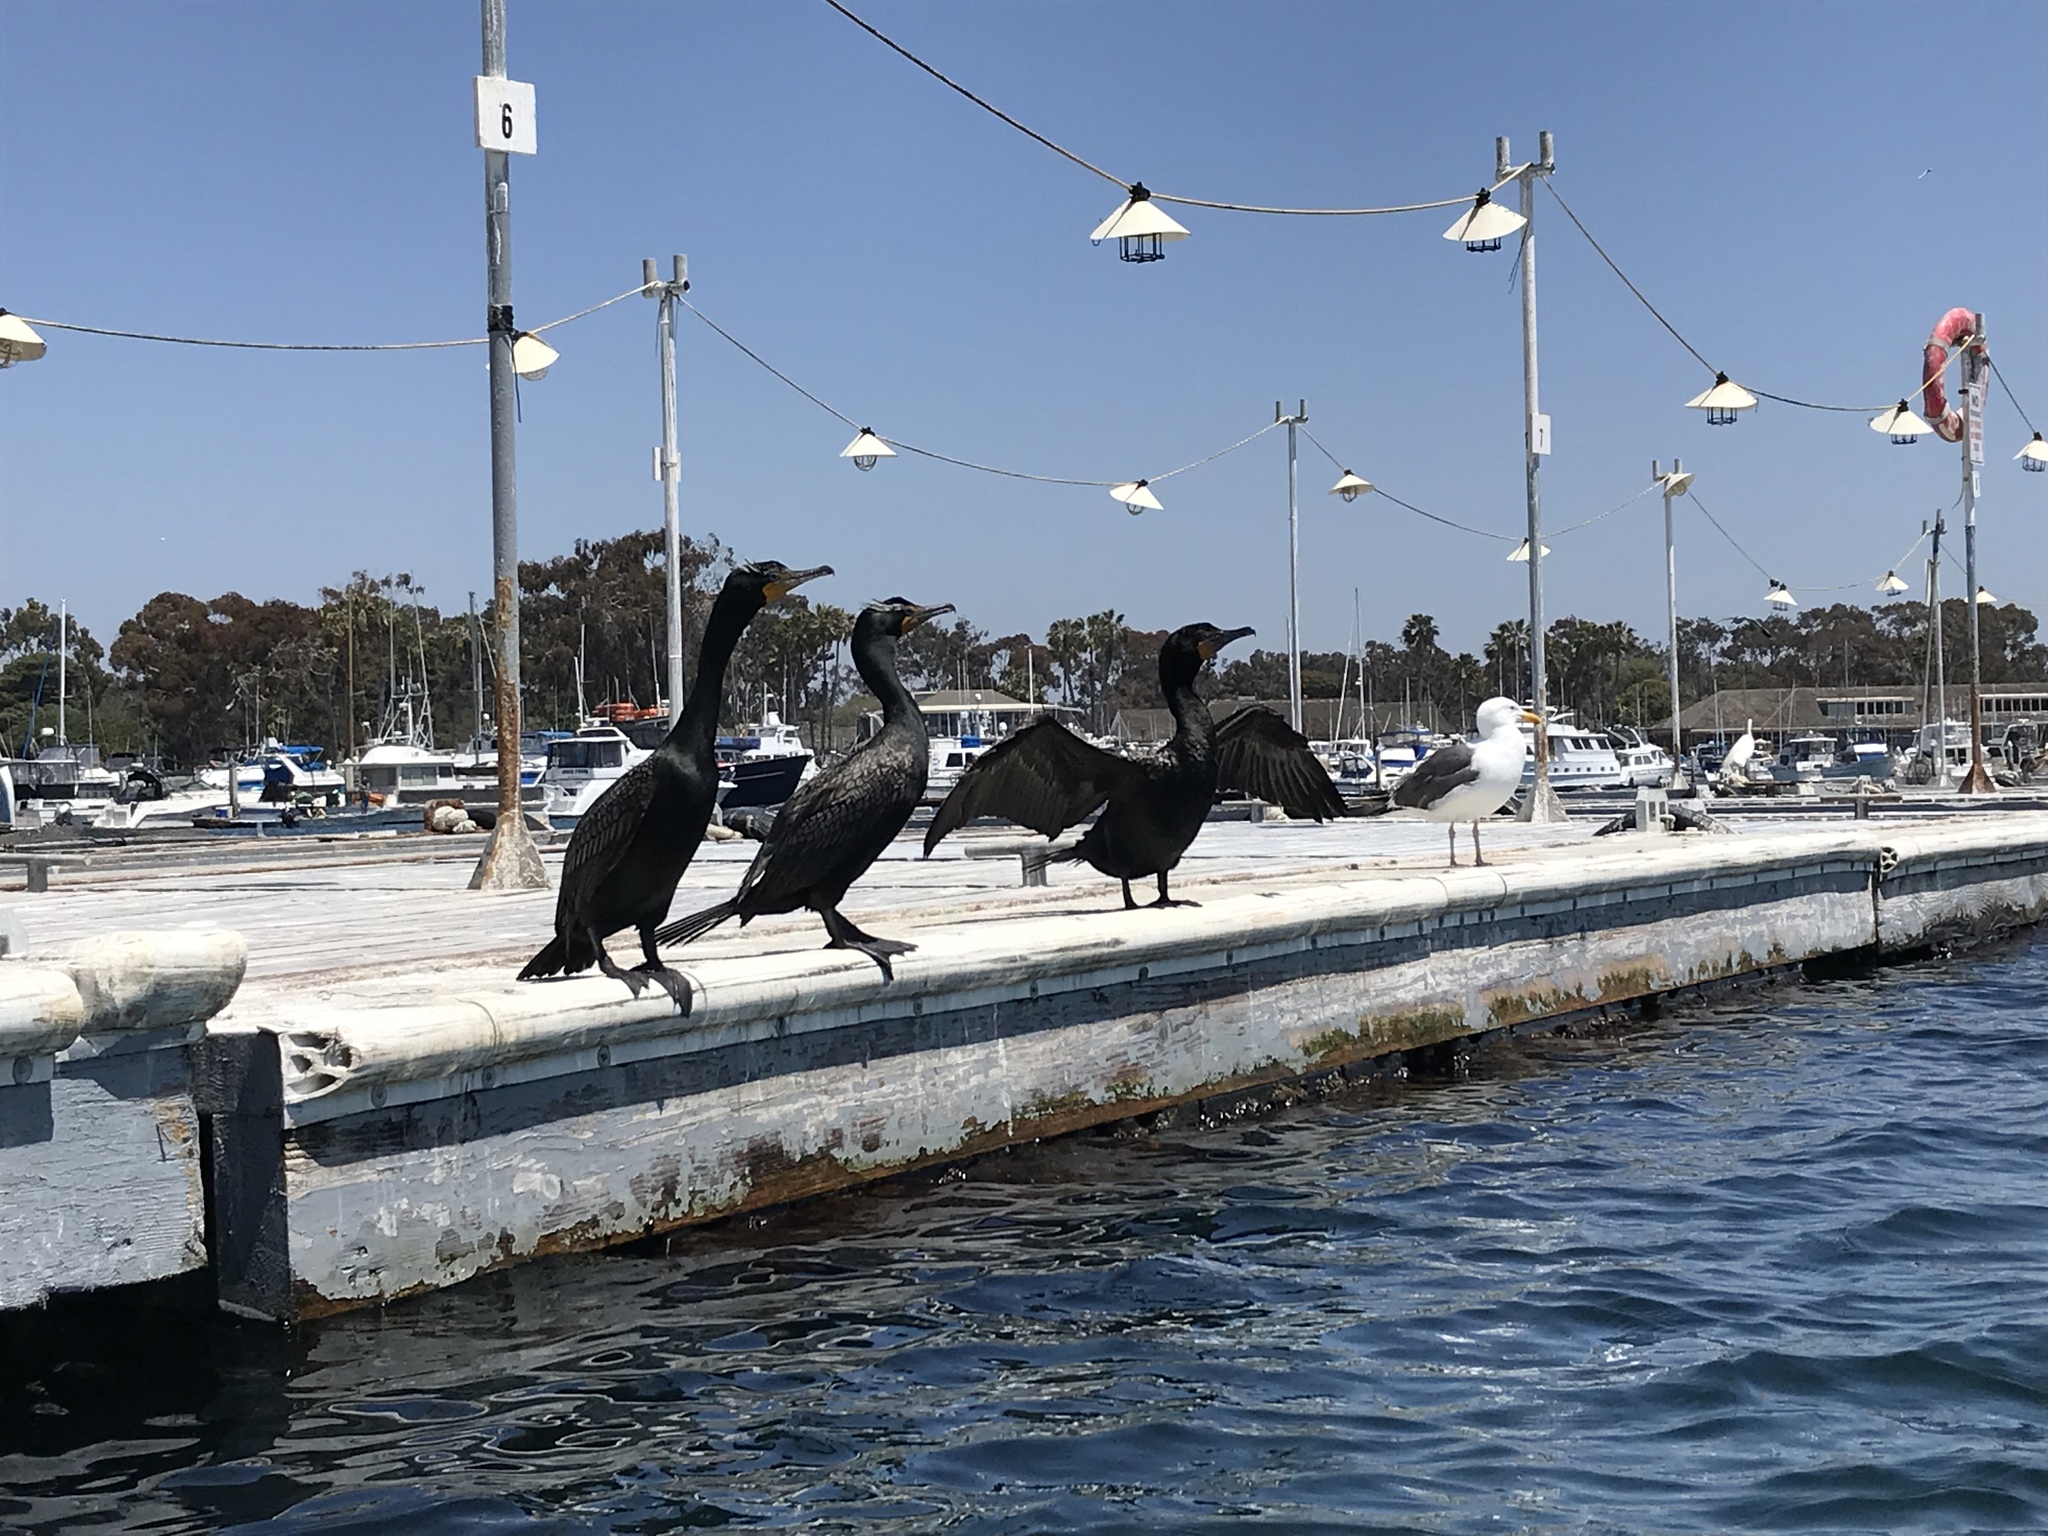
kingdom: Animalia
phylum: Chordata
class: Aves
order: Suliformes
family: Phalacrocoracidae
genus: Phalacrocorax
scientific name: Phalacrocorax auritus
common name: Double-crested cormorant
